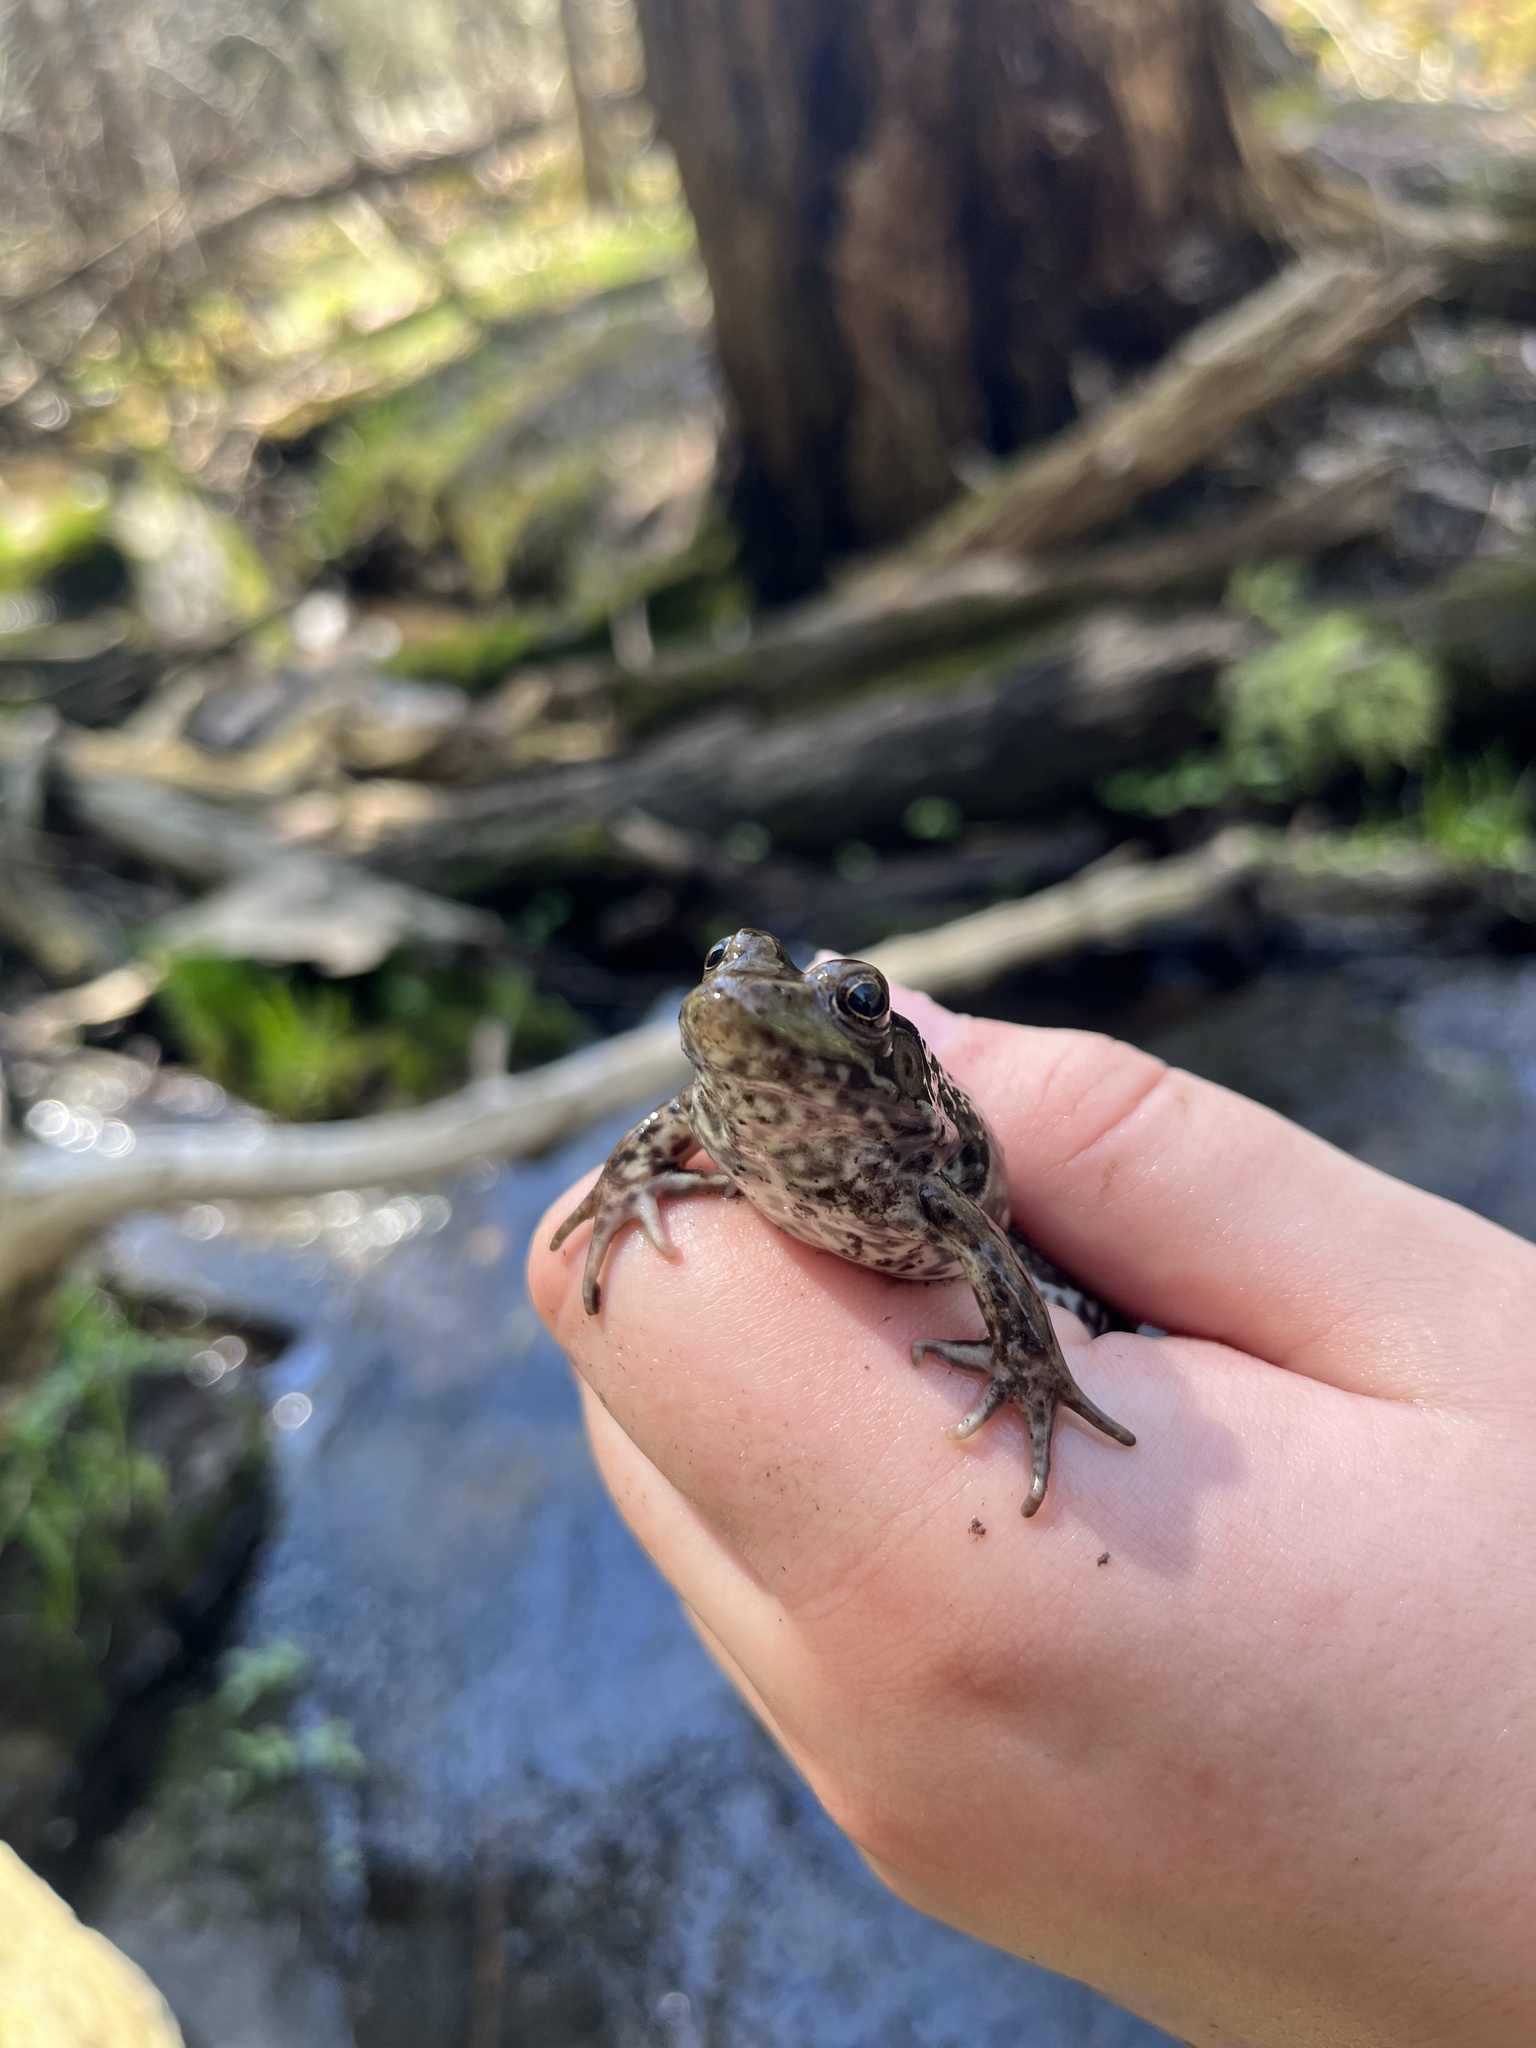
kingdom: Animalia
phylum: Chordata
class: Amphibia
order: Anura
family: Ranidae
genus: Lithobates
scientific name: Lithobates clamitans
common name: Green frog
